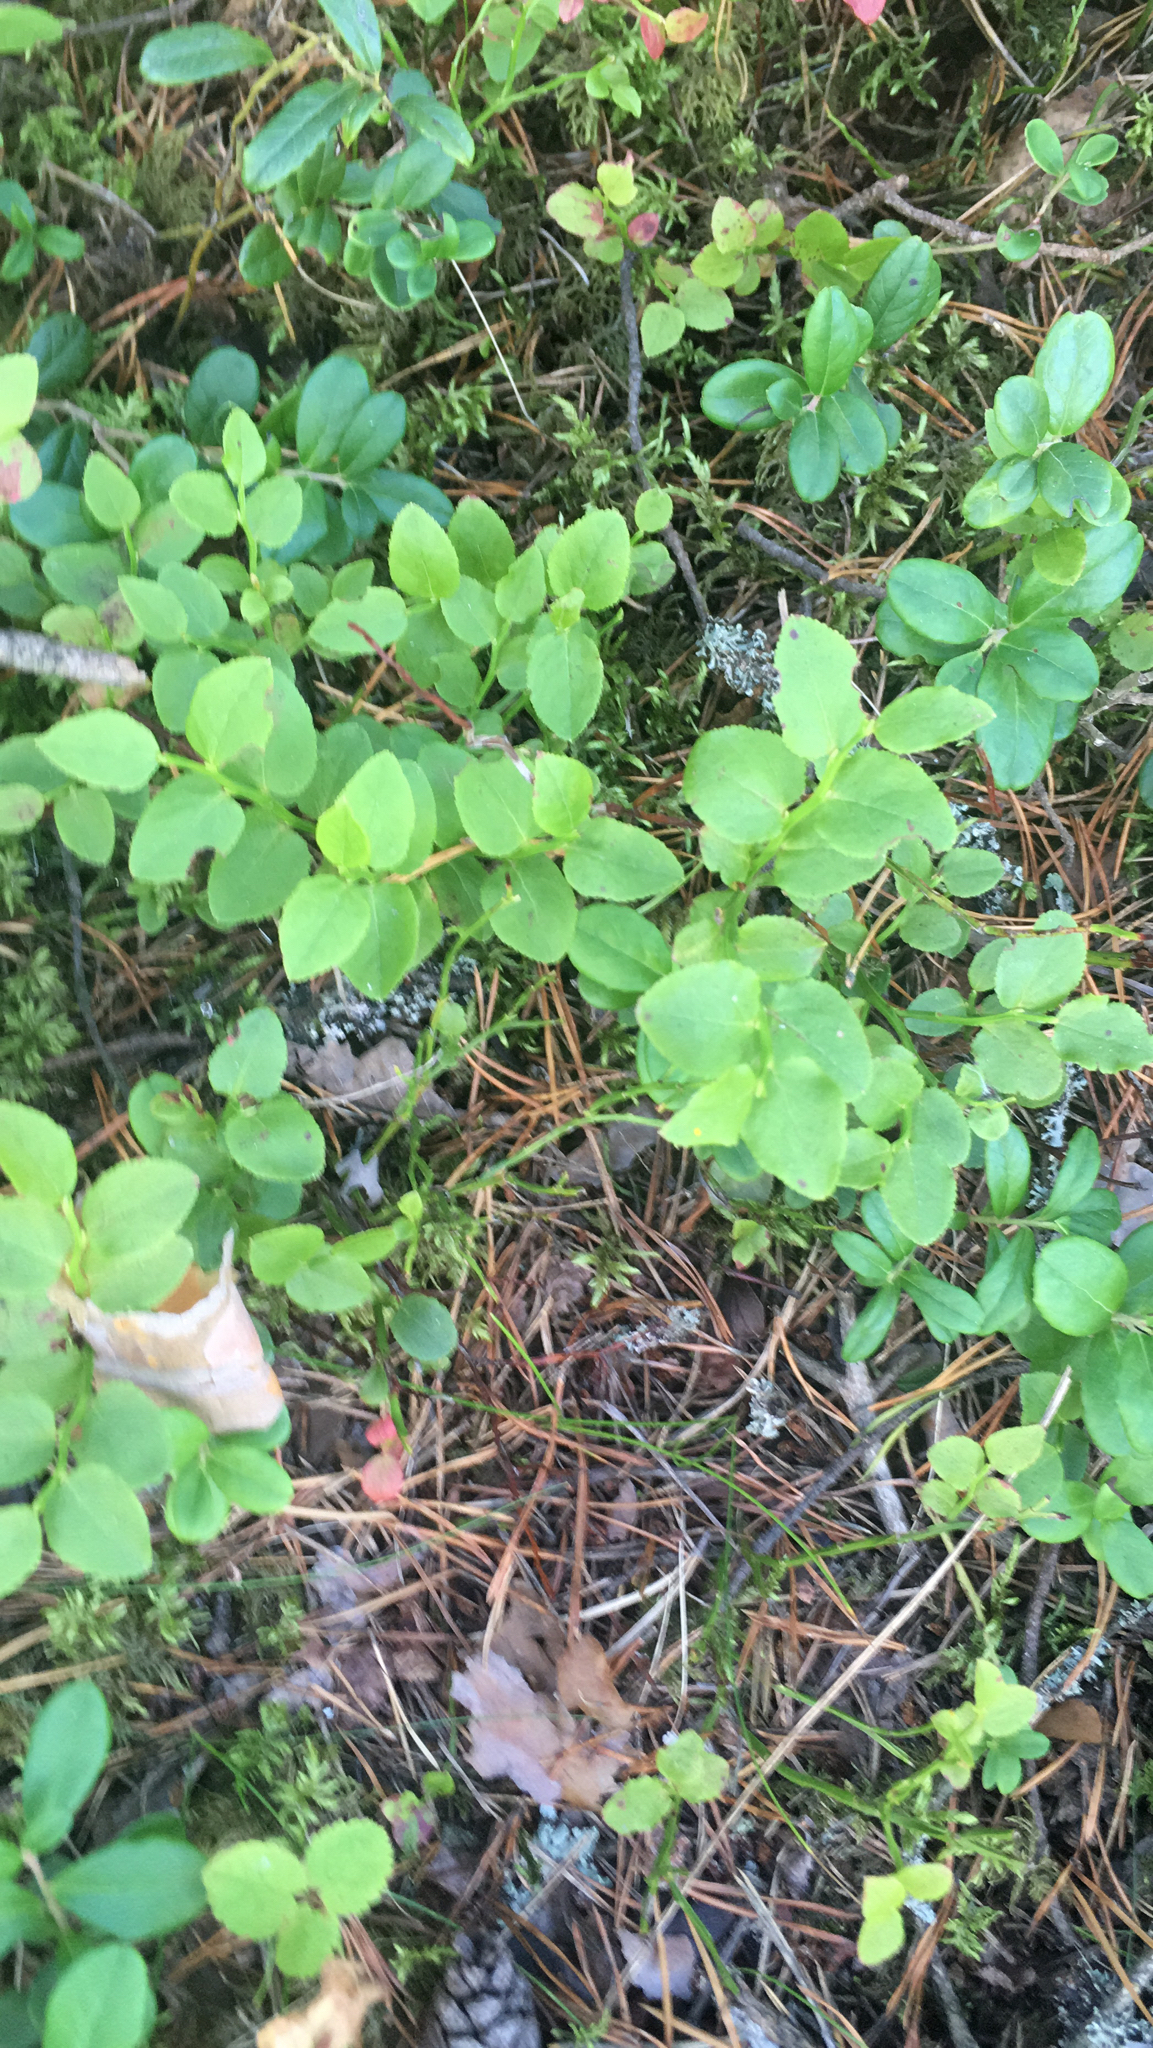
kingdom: Plantae
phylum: Tracheophyta
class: Magnoliopsida
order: Ericales
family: Ericaceae
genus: Vaccinium
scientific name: Vaccinium myrtillus
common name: Bilberry
